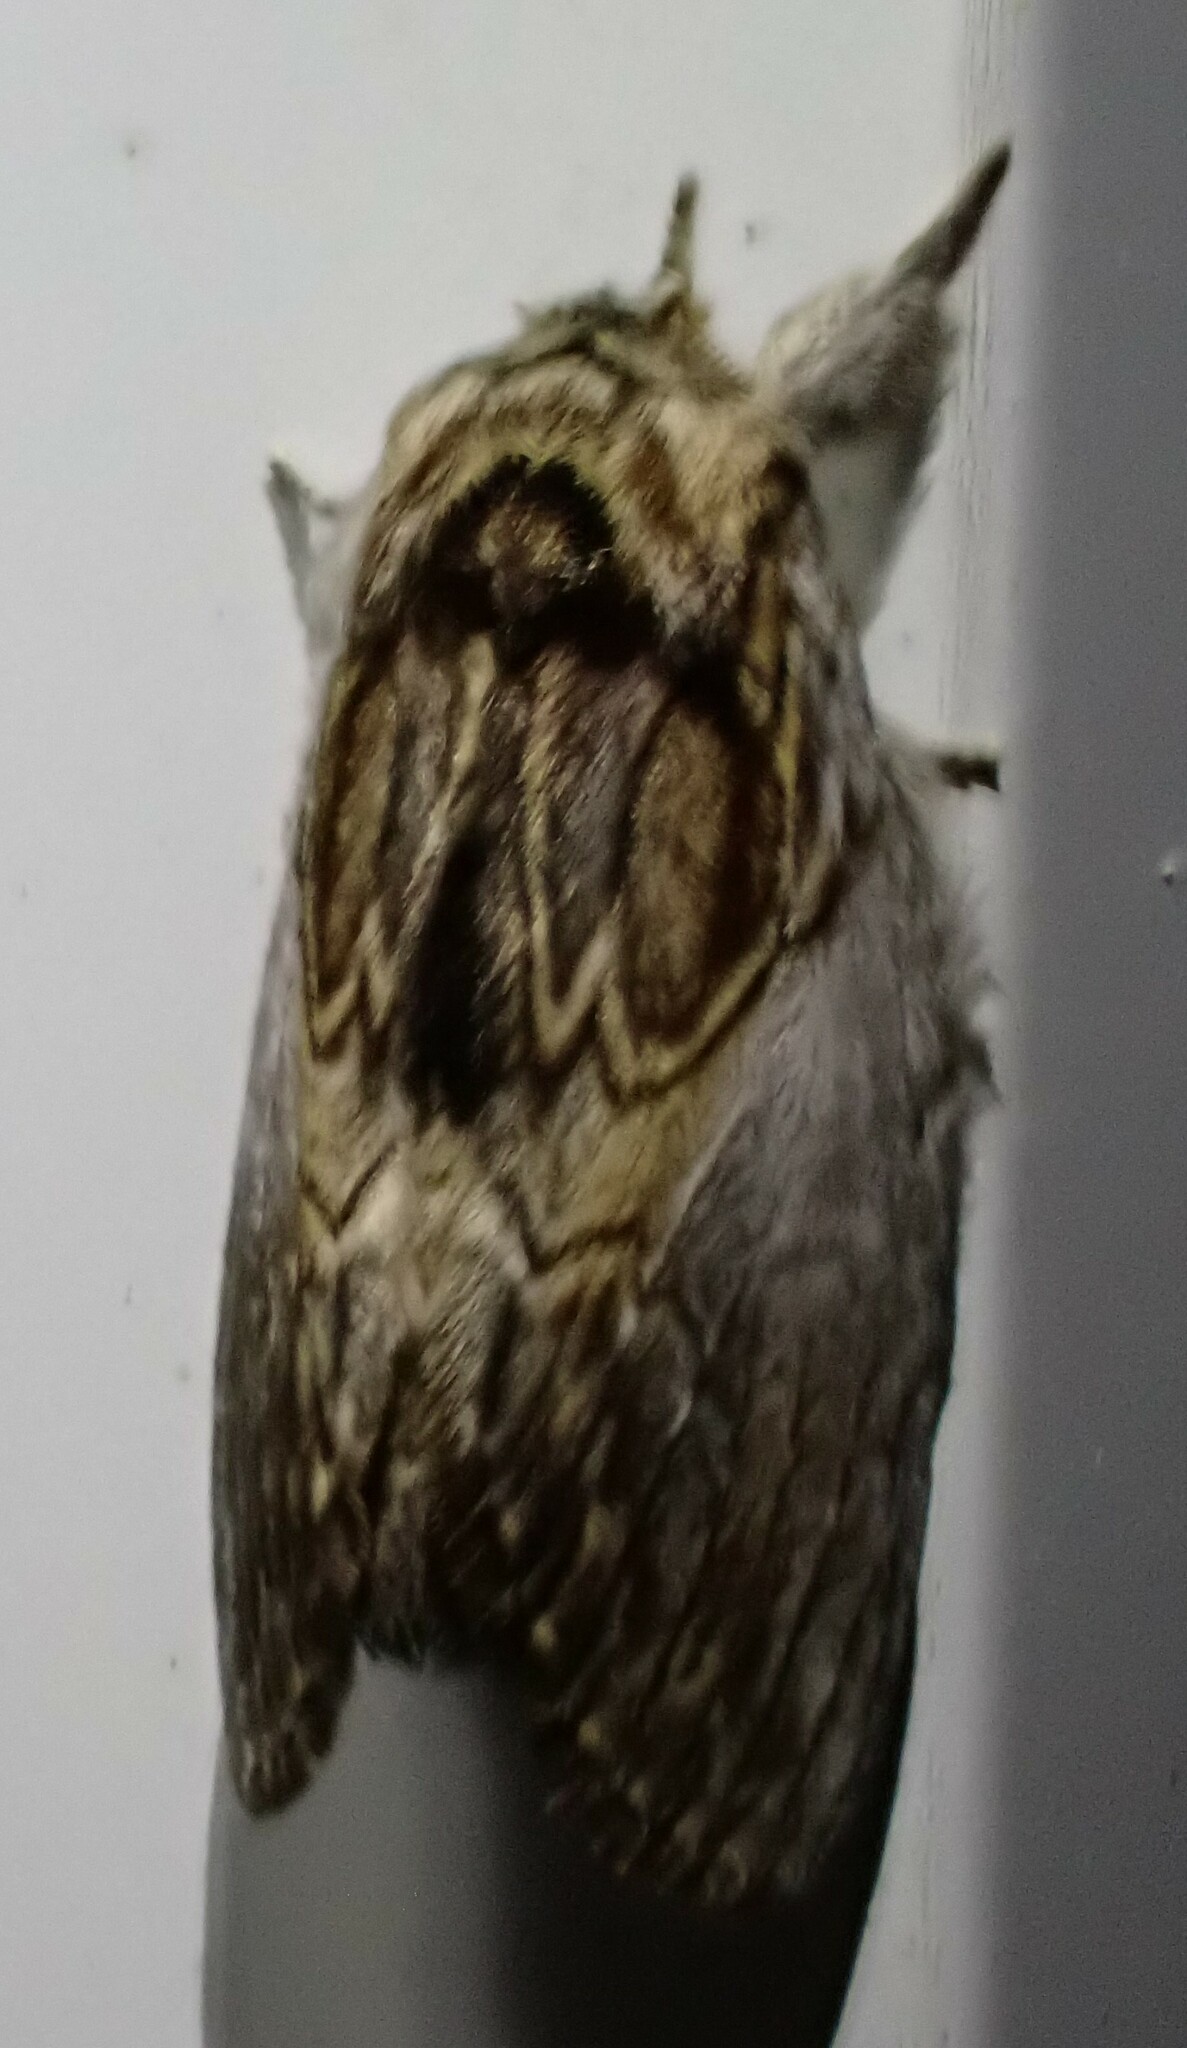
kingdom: Animalia
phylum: Arthropoda
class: Insecta
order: Lepidoptera
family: Notodontidae
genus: Peridea
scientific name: Peridea basitriens
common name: Oval-based prominent
